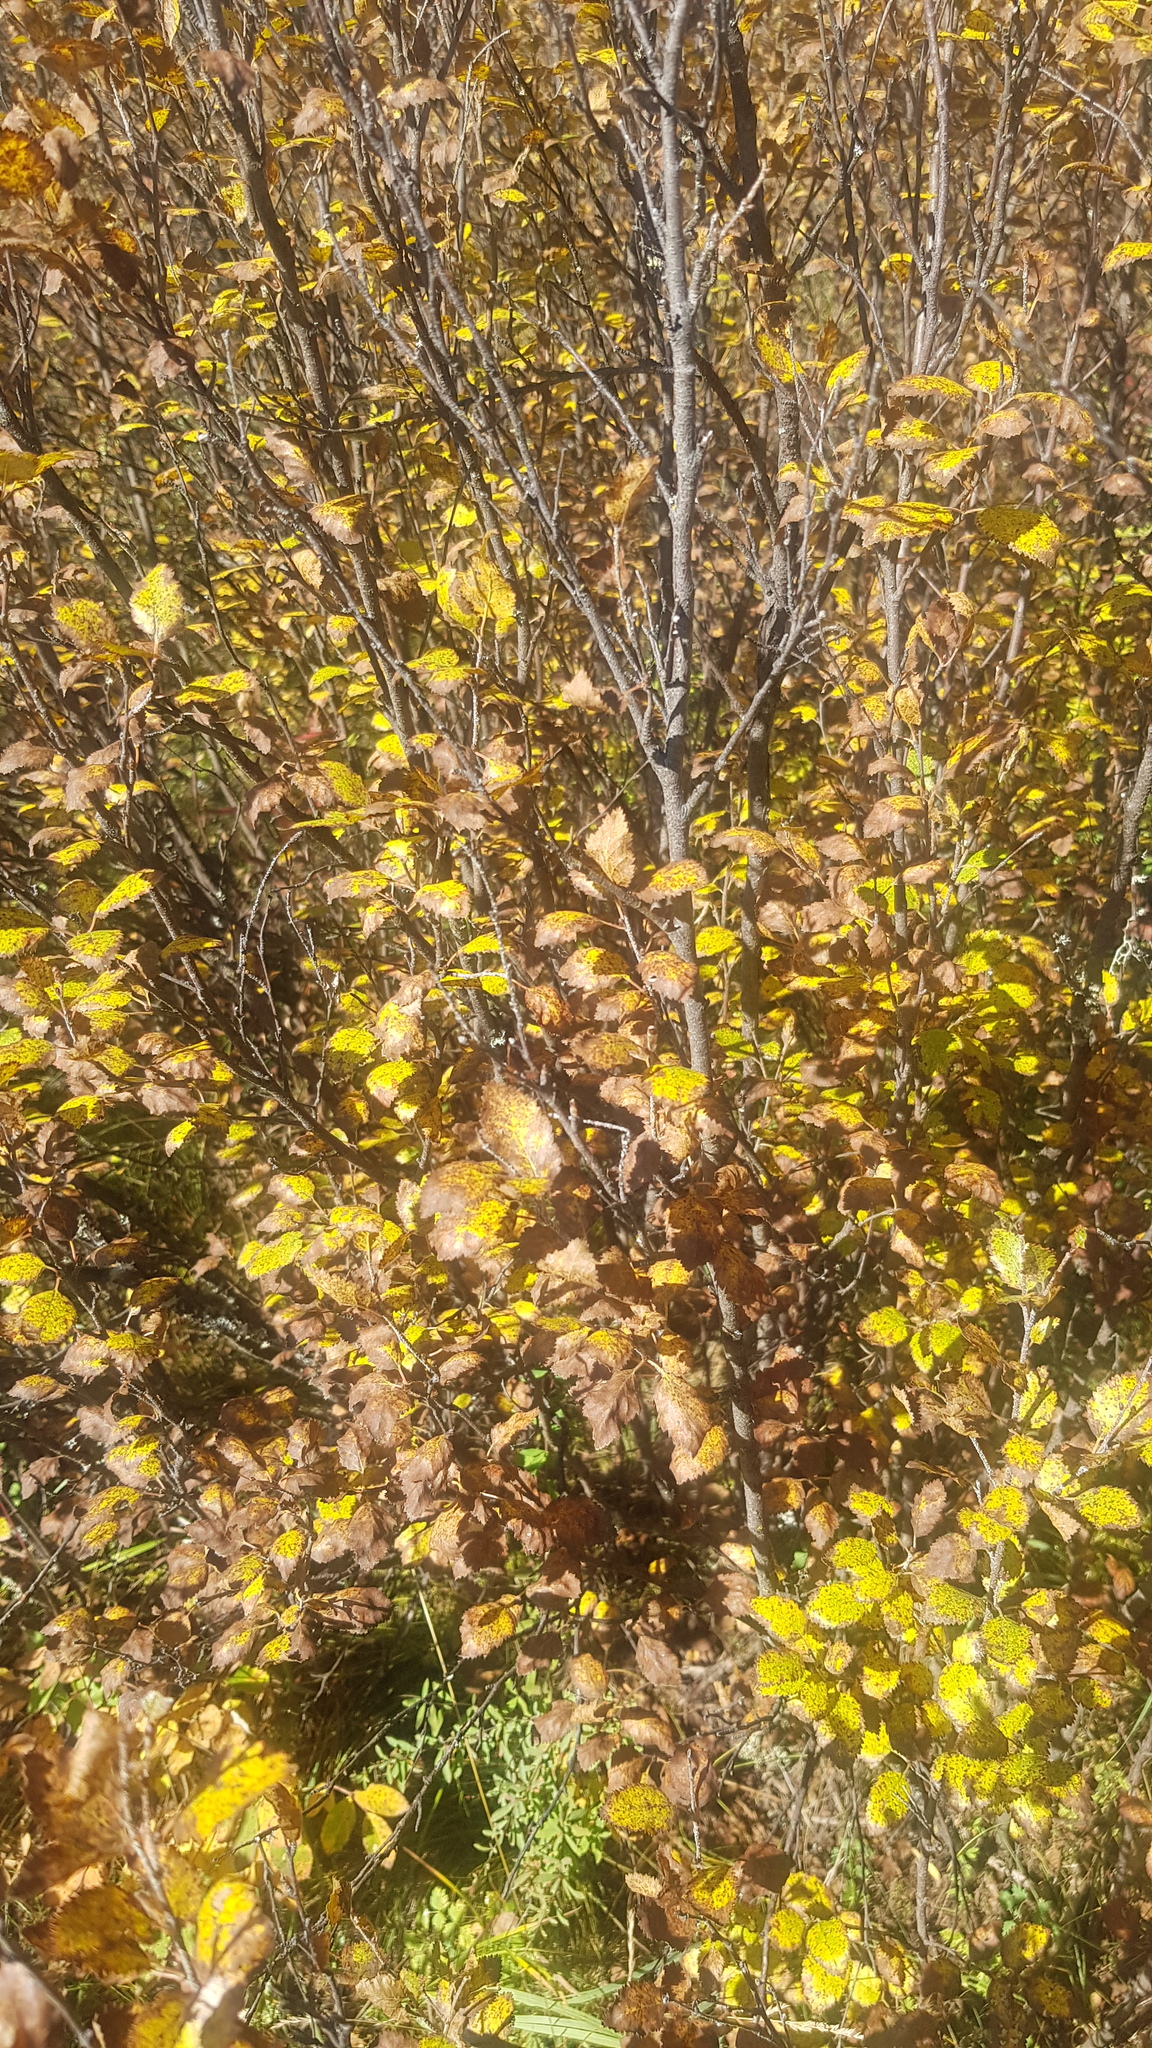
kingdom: Plantae
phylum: Tracheophyta
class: Magnoliopsida
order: Fagales
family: Betulaceae
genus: Betula
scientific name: Betula fruticosa
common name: Japanese bog birch
